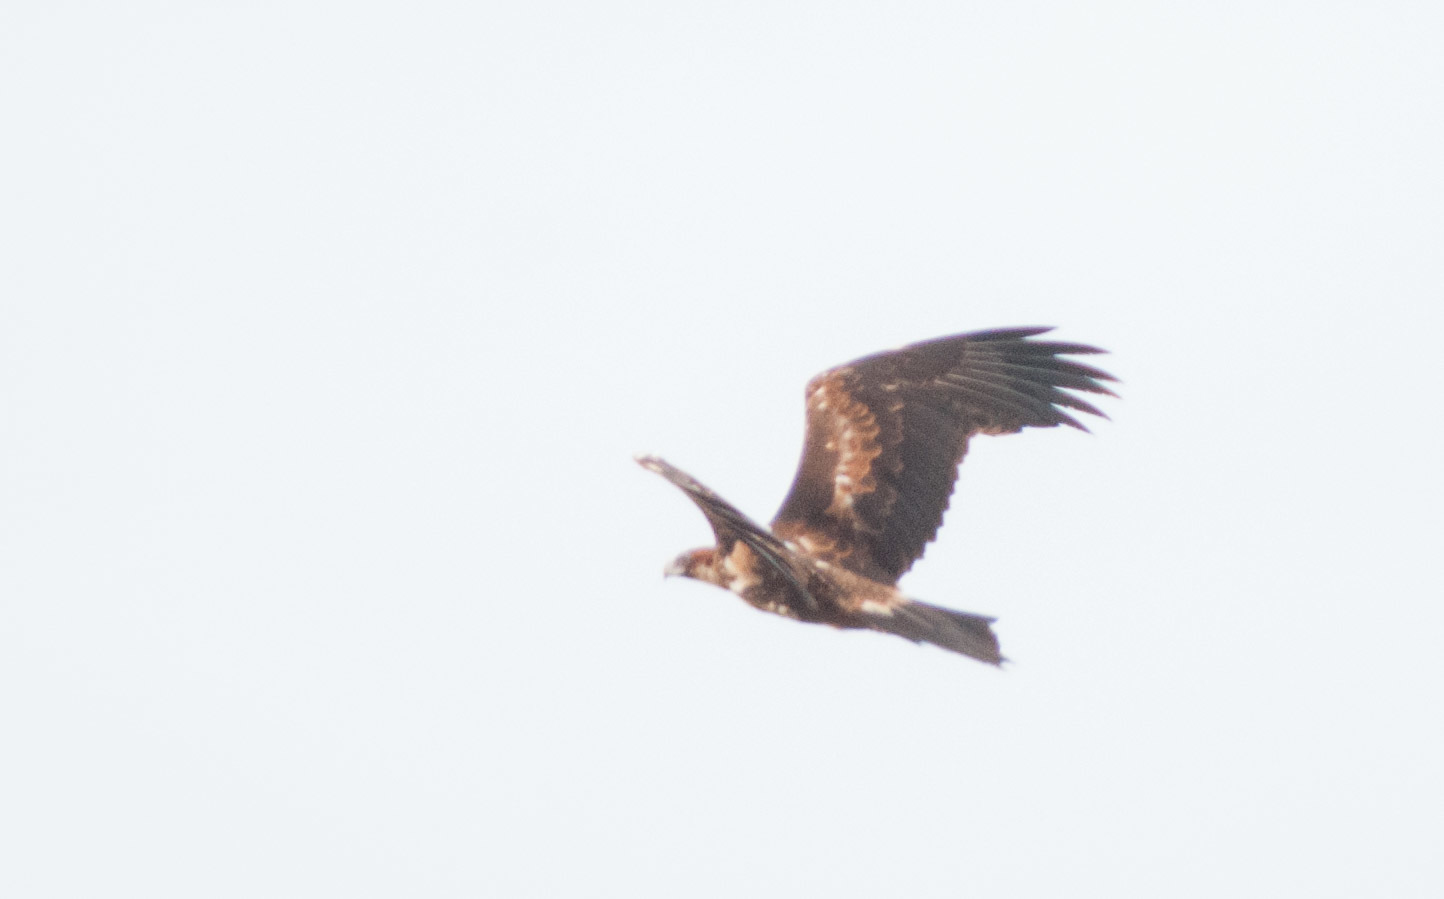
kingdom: Animalia
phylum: Chordata
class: Aves
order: Accipitriformes
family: Accipitridae
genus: Aquila
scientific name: Aquila audax
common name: Wedge-tailed eagle
